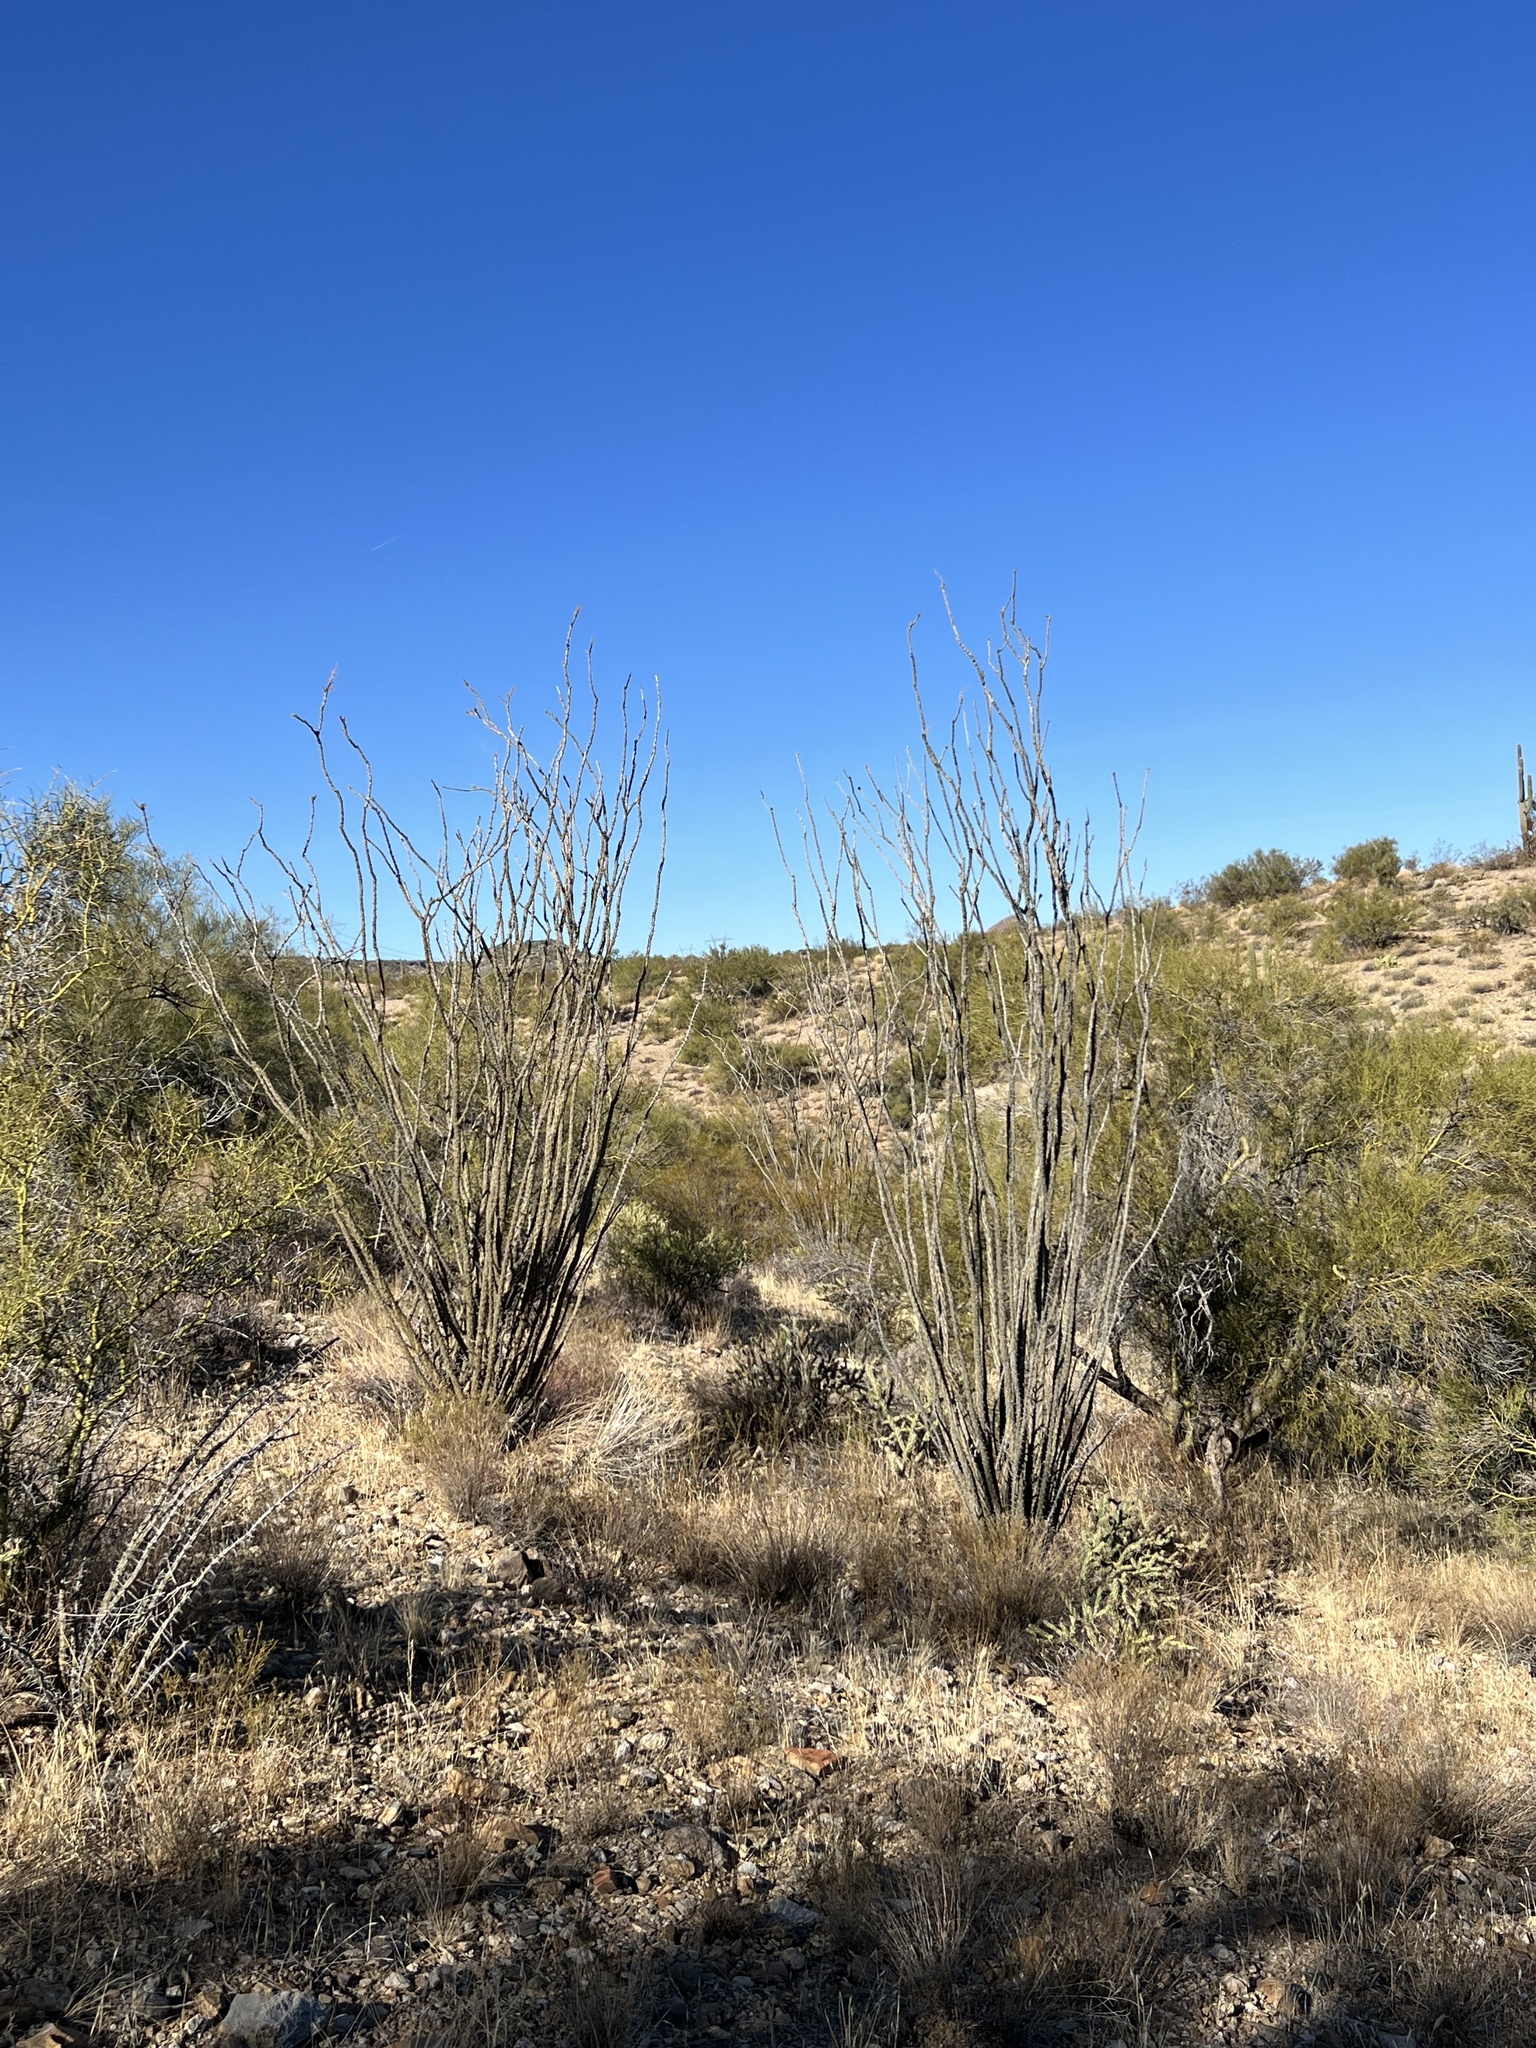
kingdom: Plantae
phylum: Tracheophyta
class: Magnoliopsida
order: Ericales
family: Fouquieriaceae
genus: Fouquieria
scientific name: Fouquieria splendens
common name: Vine-cactus
